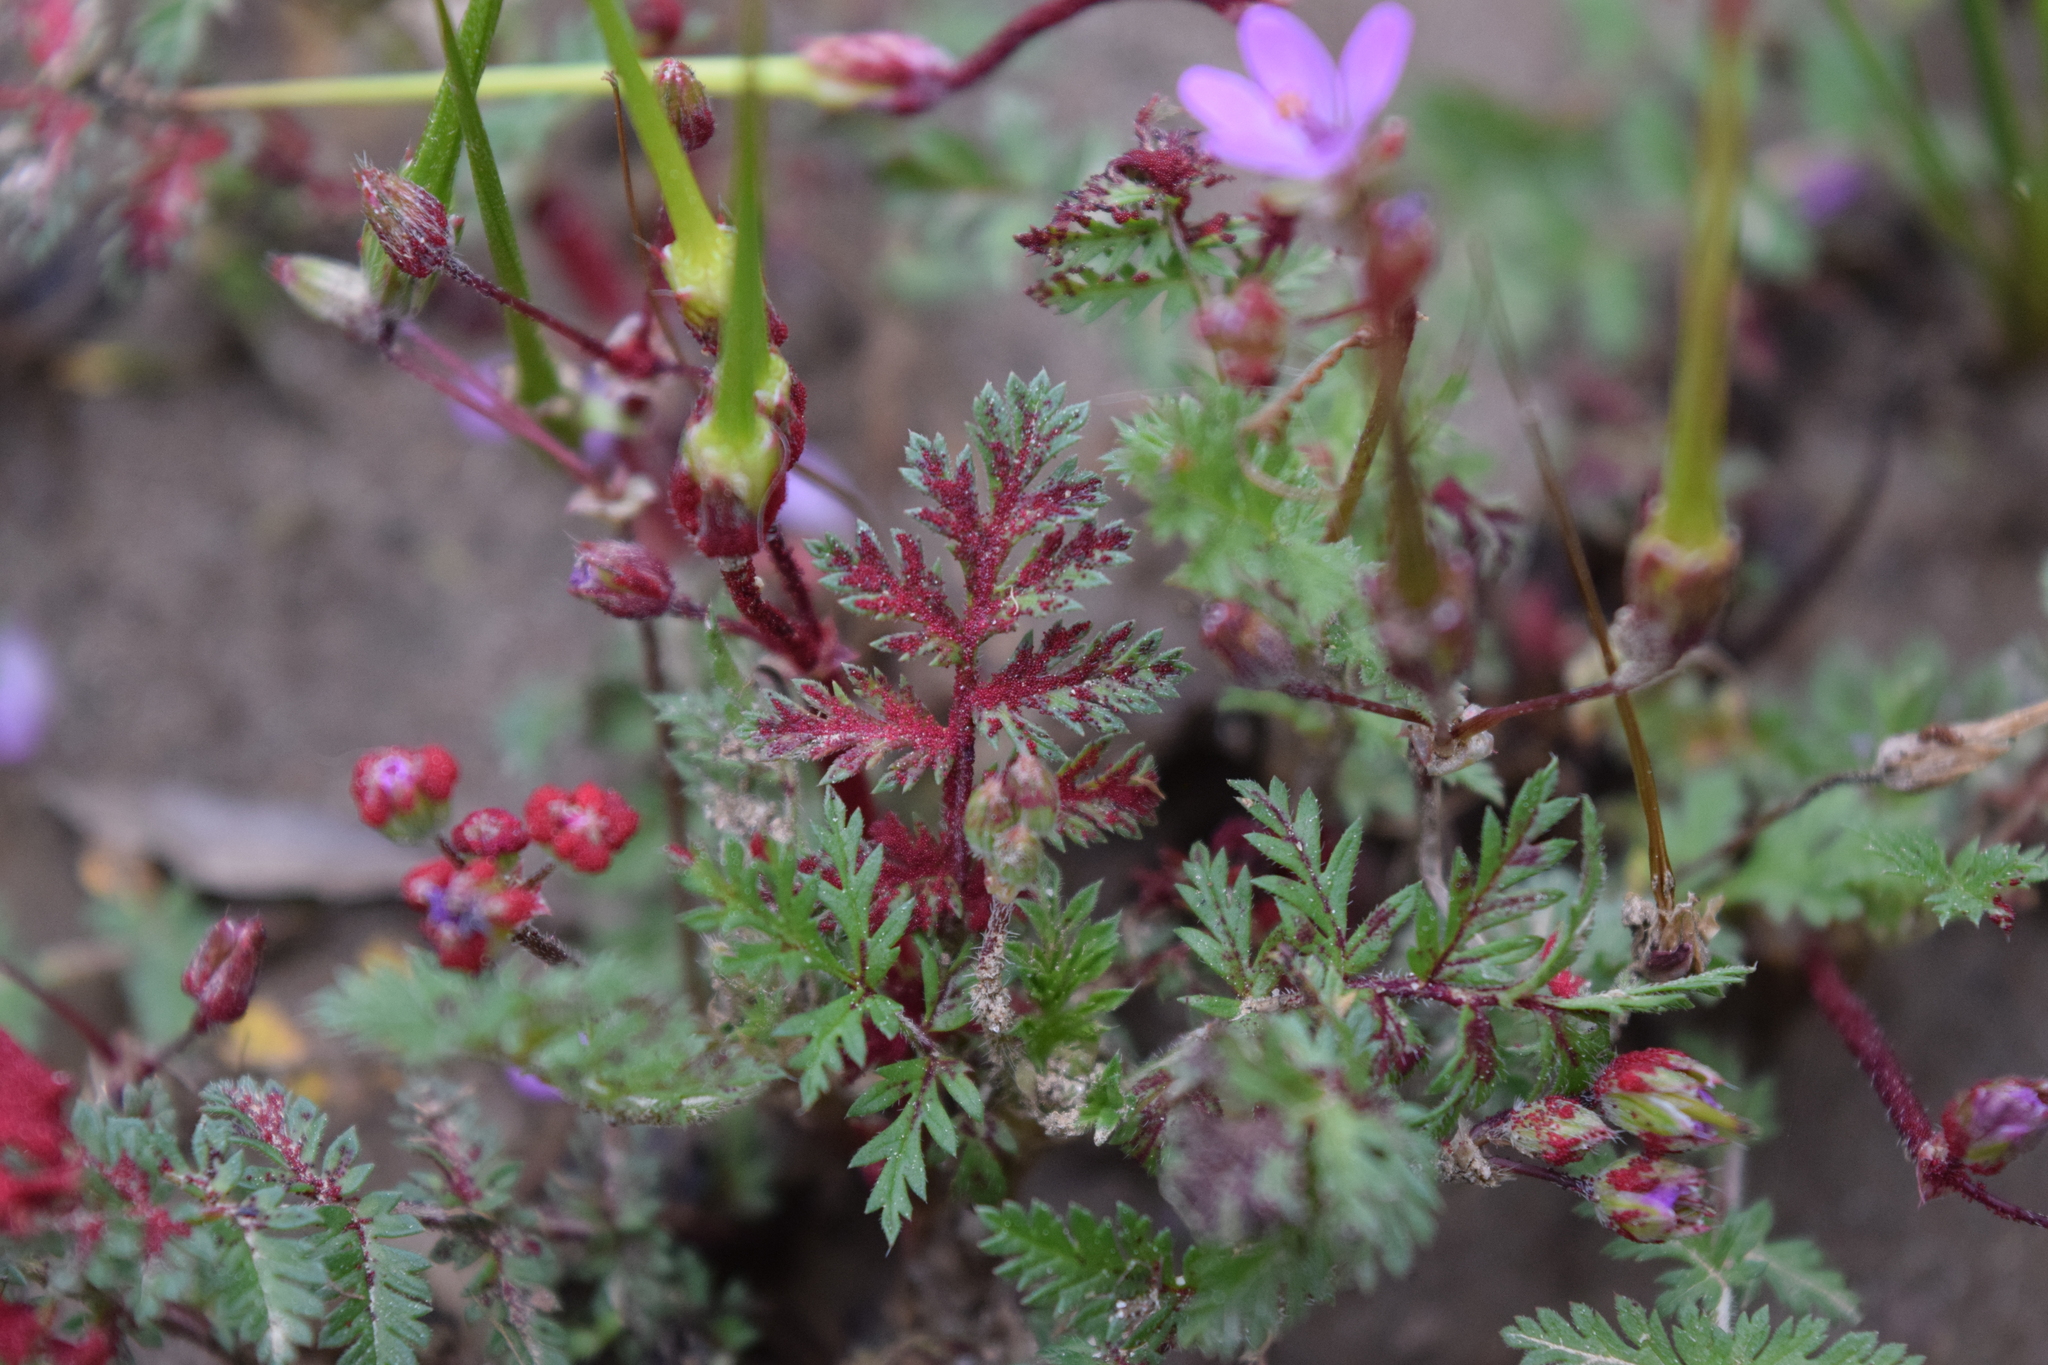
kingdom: Fungi
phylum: Chytridiomycota
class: Chytridiomycetes
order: Chytridiales
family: Synchytriaceae
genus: Synchytrium
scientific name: Synchytrium papillatum
